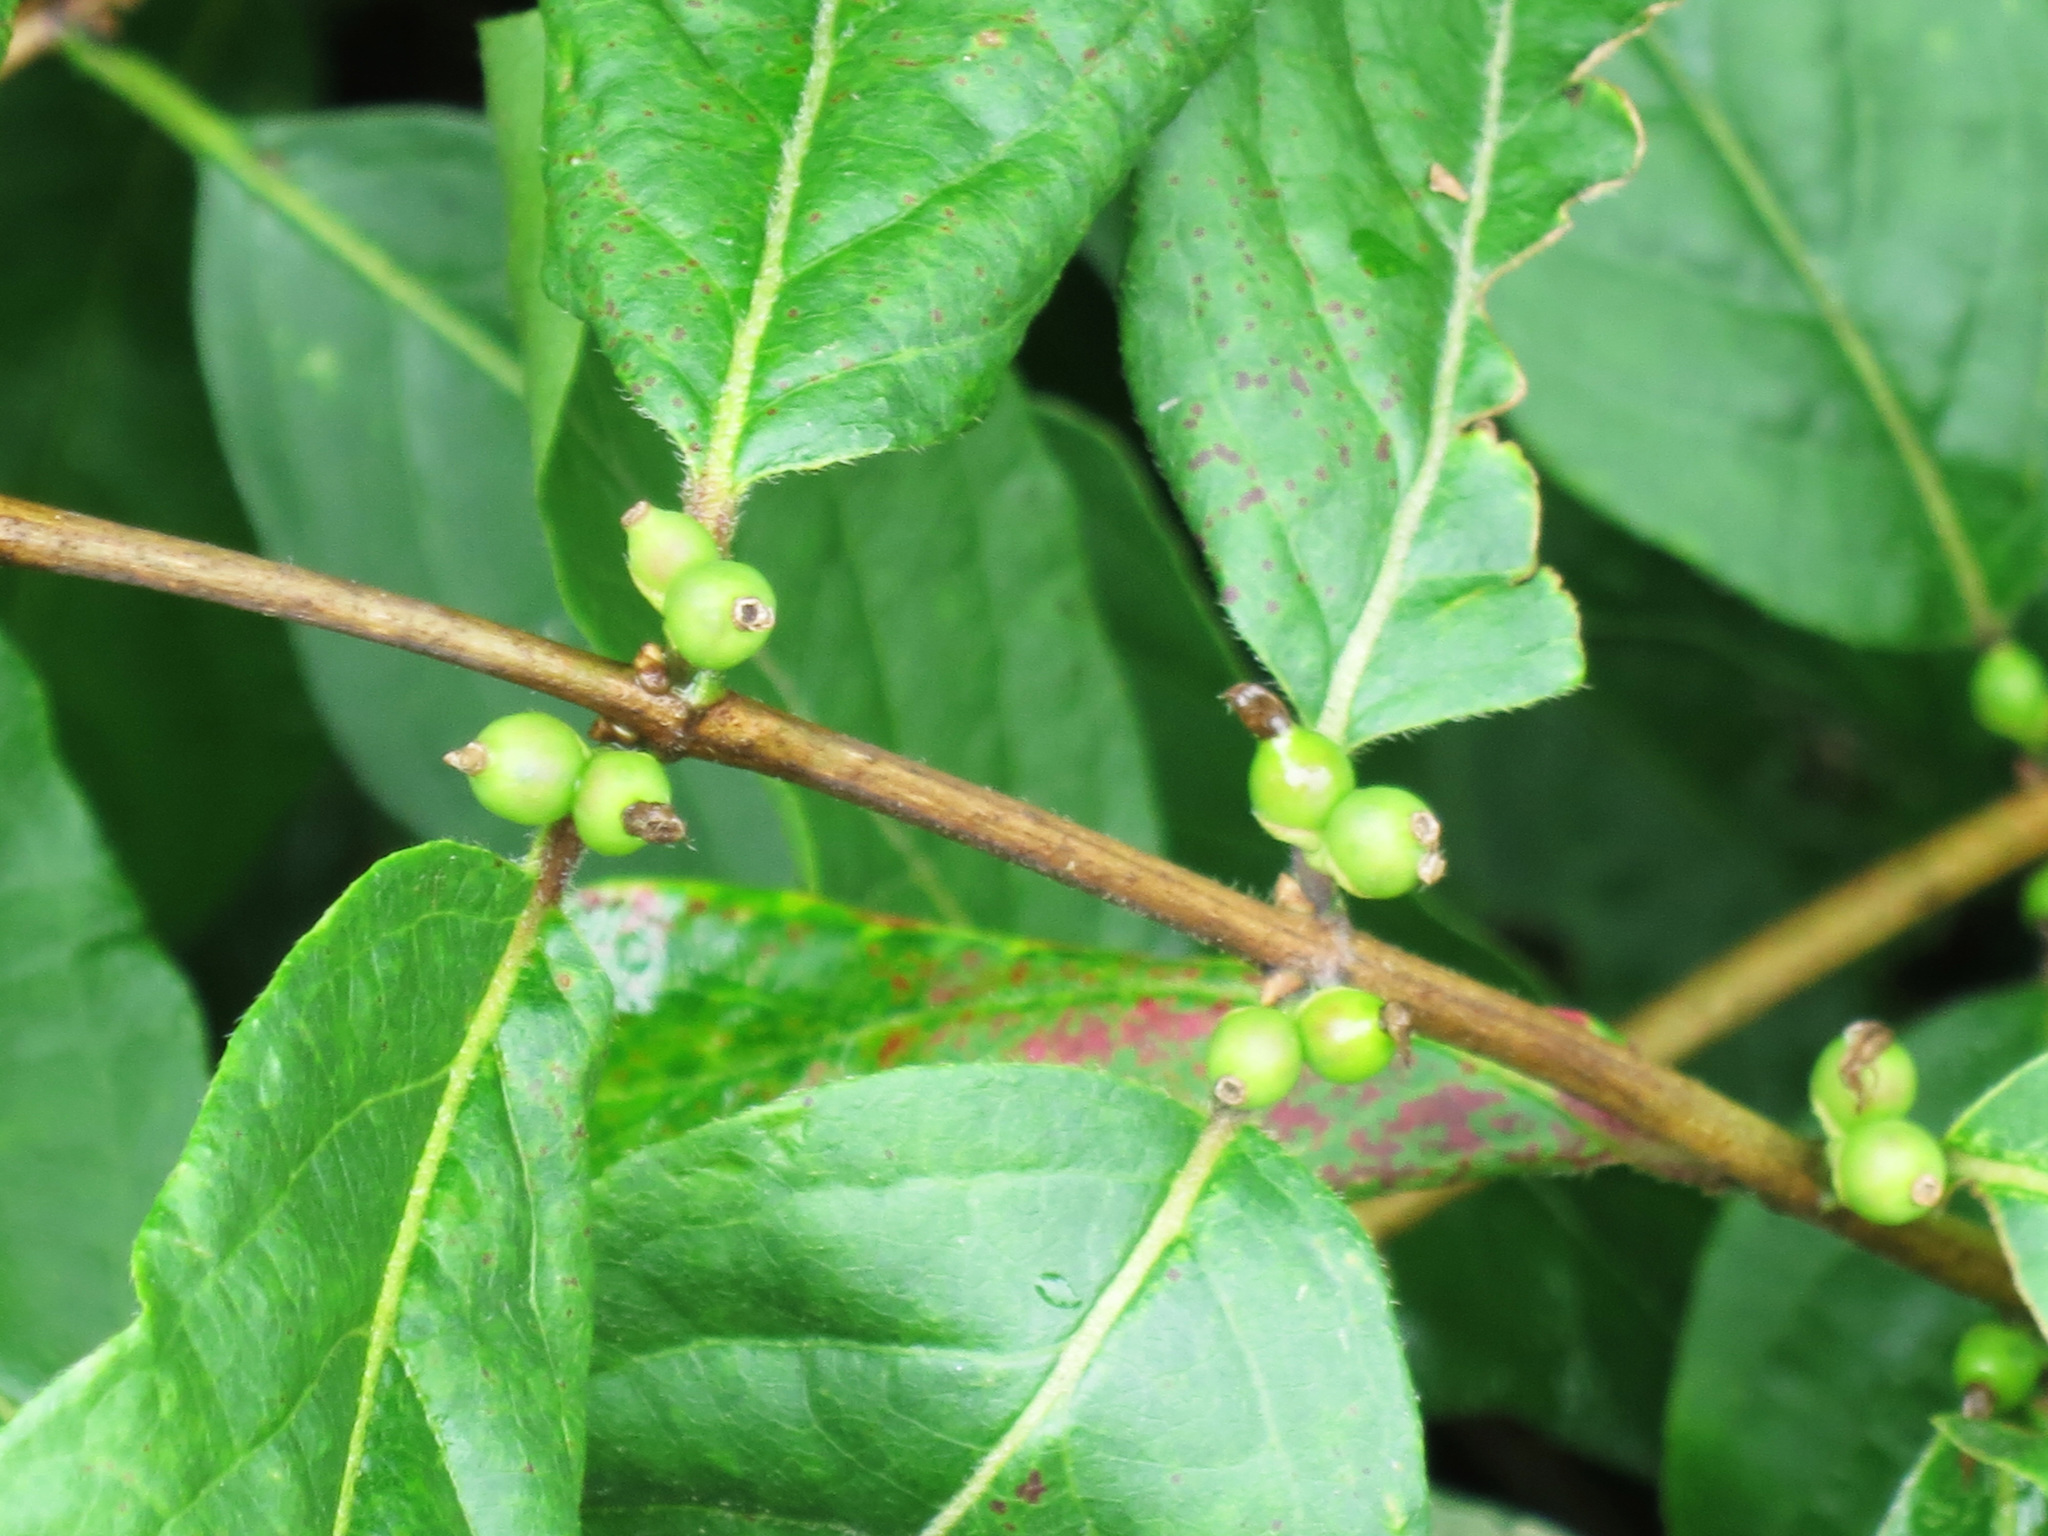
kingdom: Plantae
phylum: Tracheophyta
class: Magnoliopsida
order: Dipsacales
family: Caprifoliaceae
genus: Lonicera
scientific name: Lonicera maackii
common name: Amur honeysuckle
